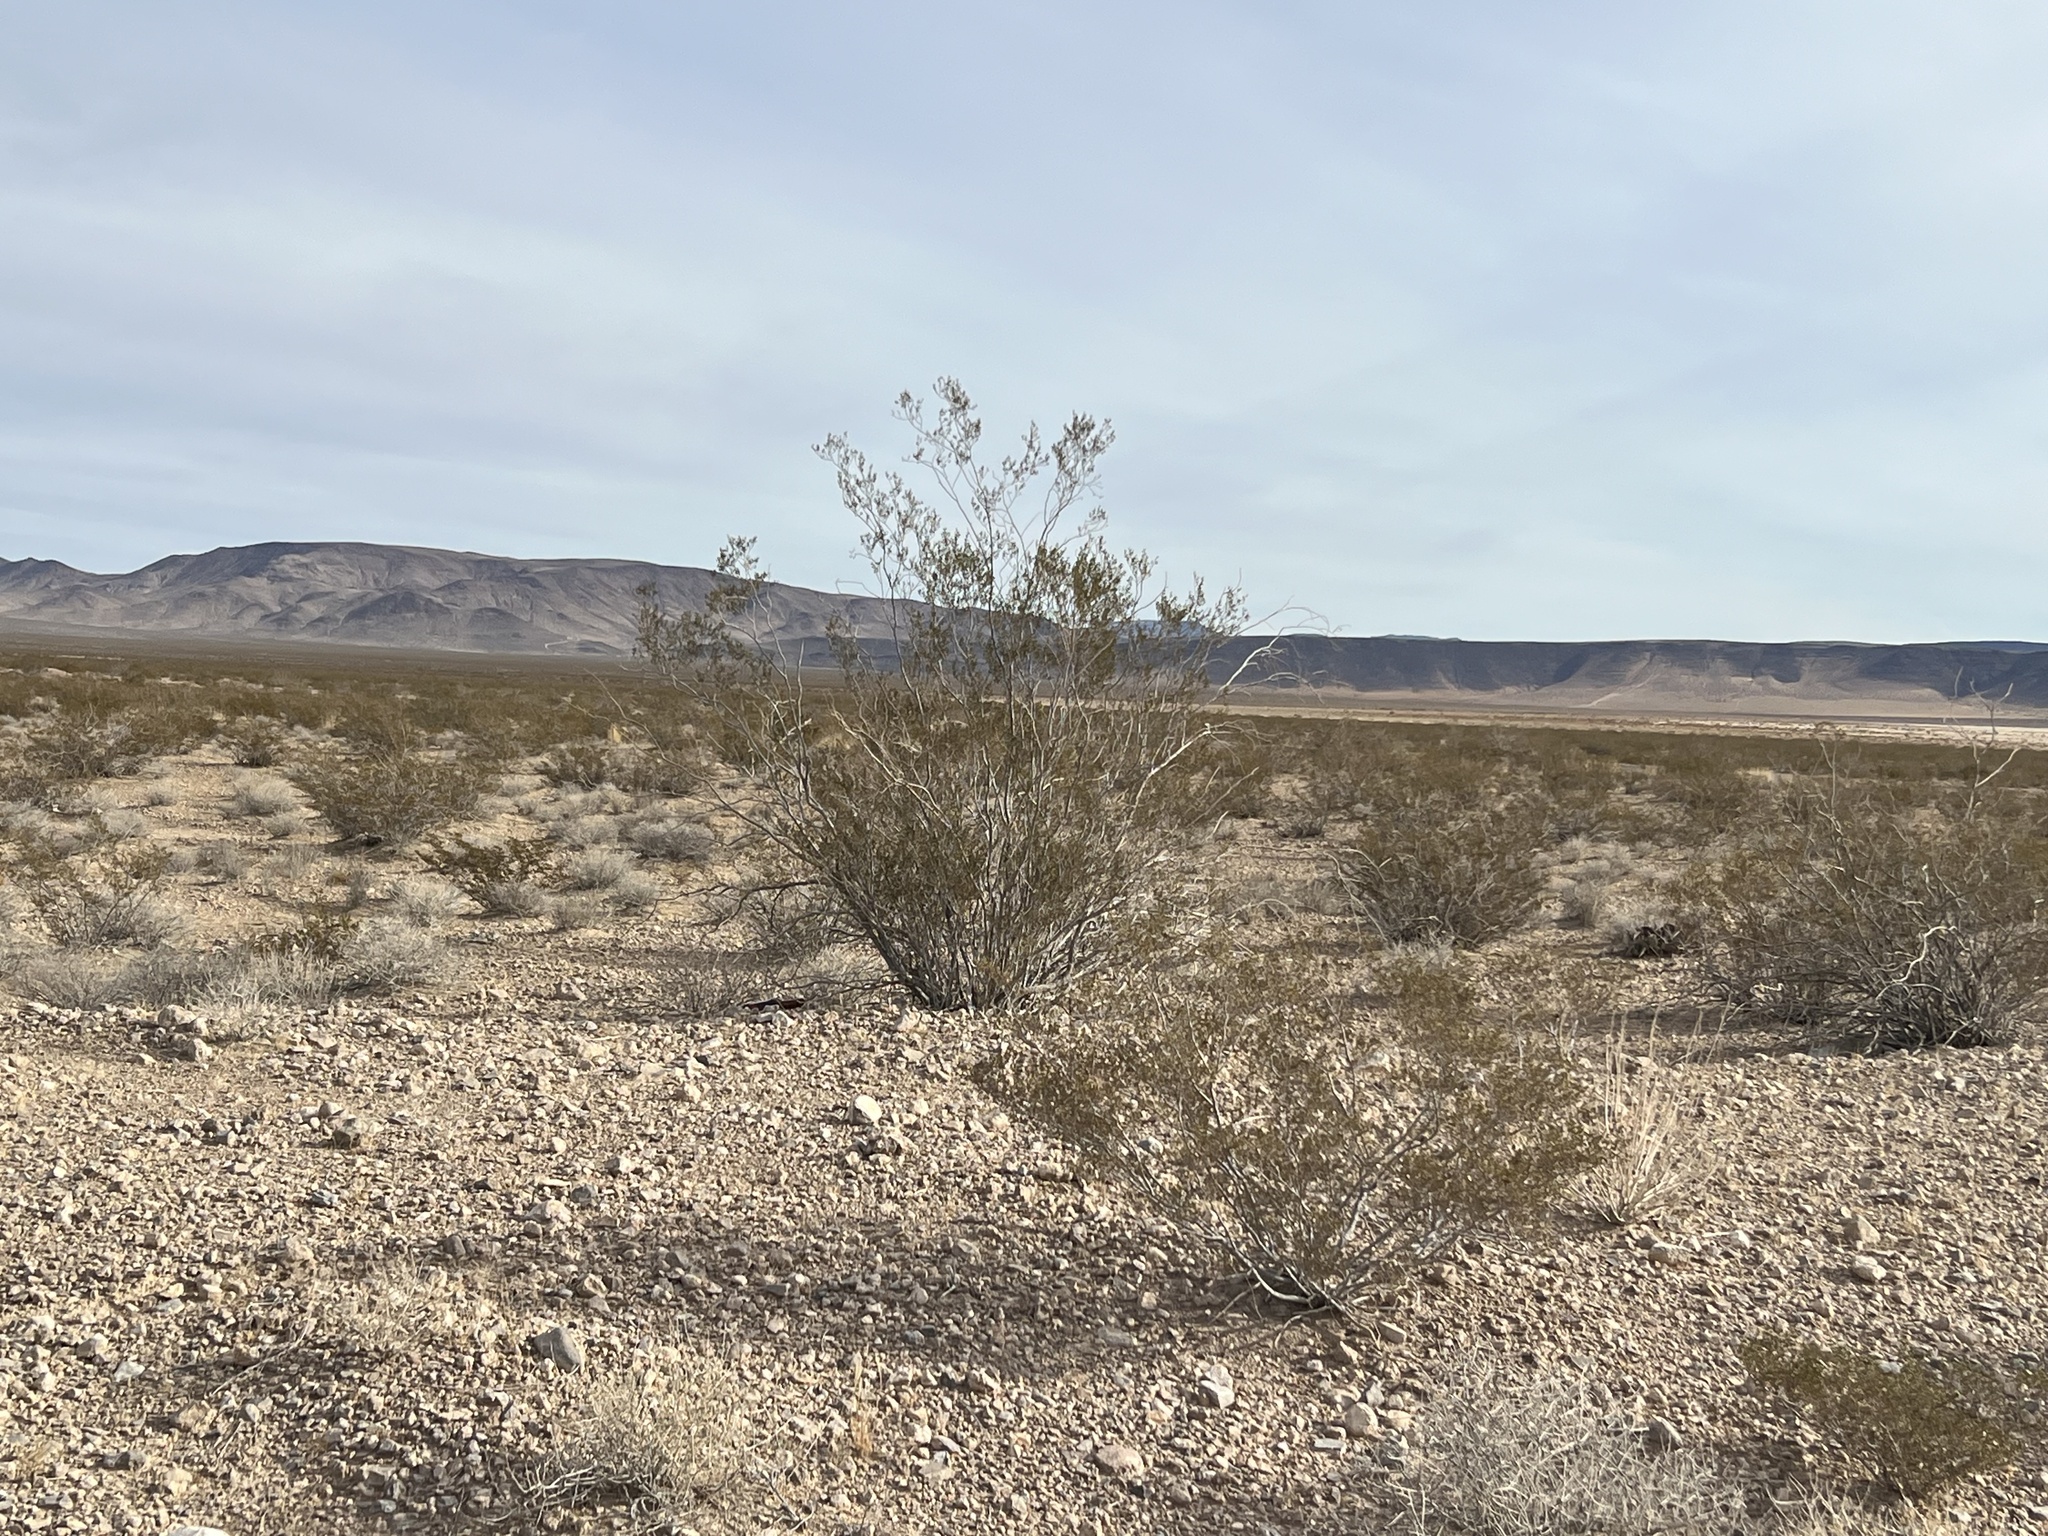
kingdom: Plantae
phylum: Tracheophyta
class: Magnoliopsida
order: Zygophyllales
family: Zygophyllaceae
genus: Larrea
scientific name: Larrea tridentata
